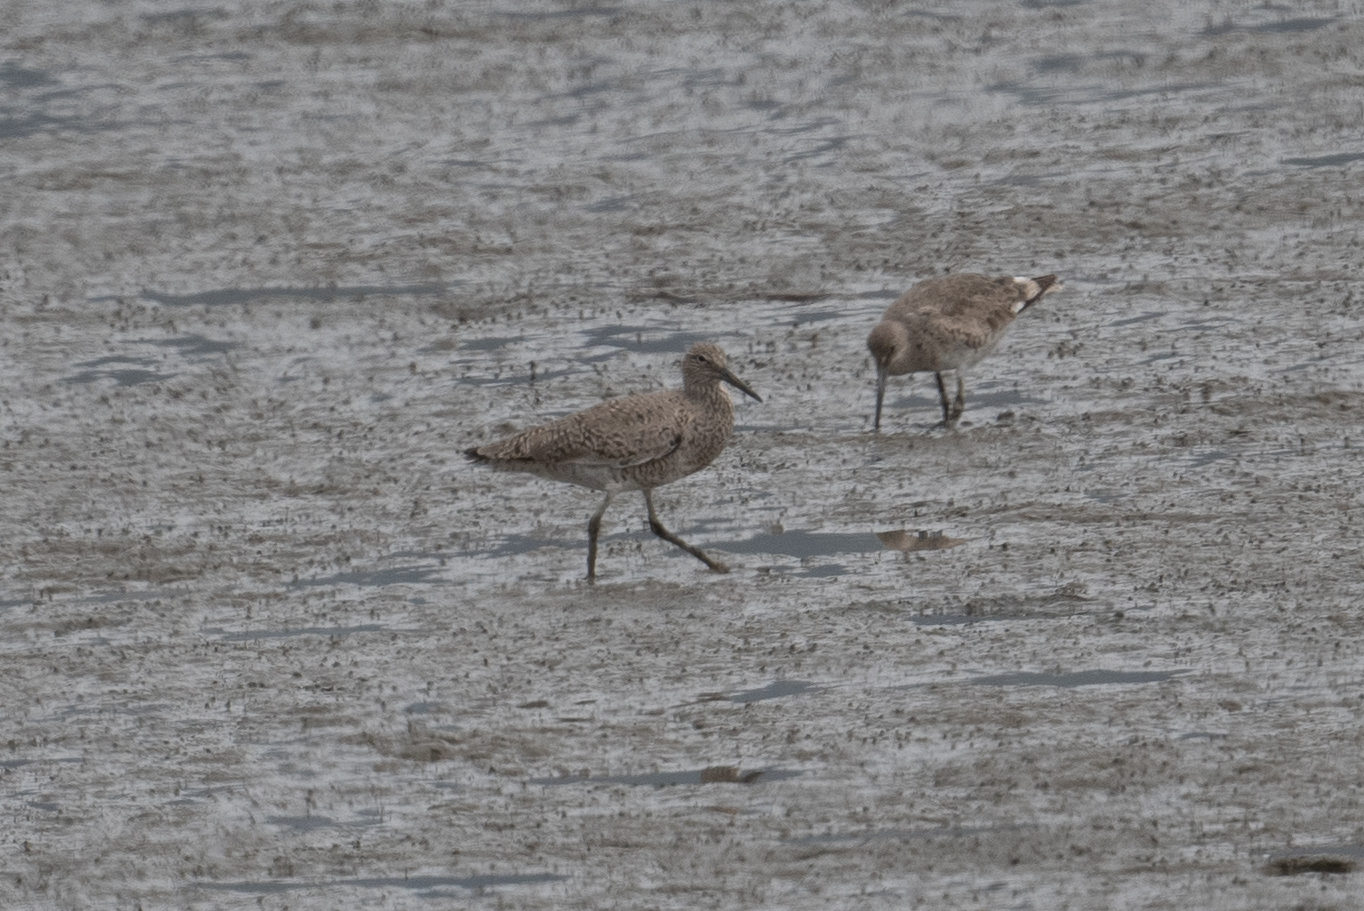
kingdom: Animalia
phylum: Chordata
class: Aves
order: Charadriiformes
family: Scolopacidae
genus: Tringa
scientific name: Tringa semipalmata
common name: Willet
